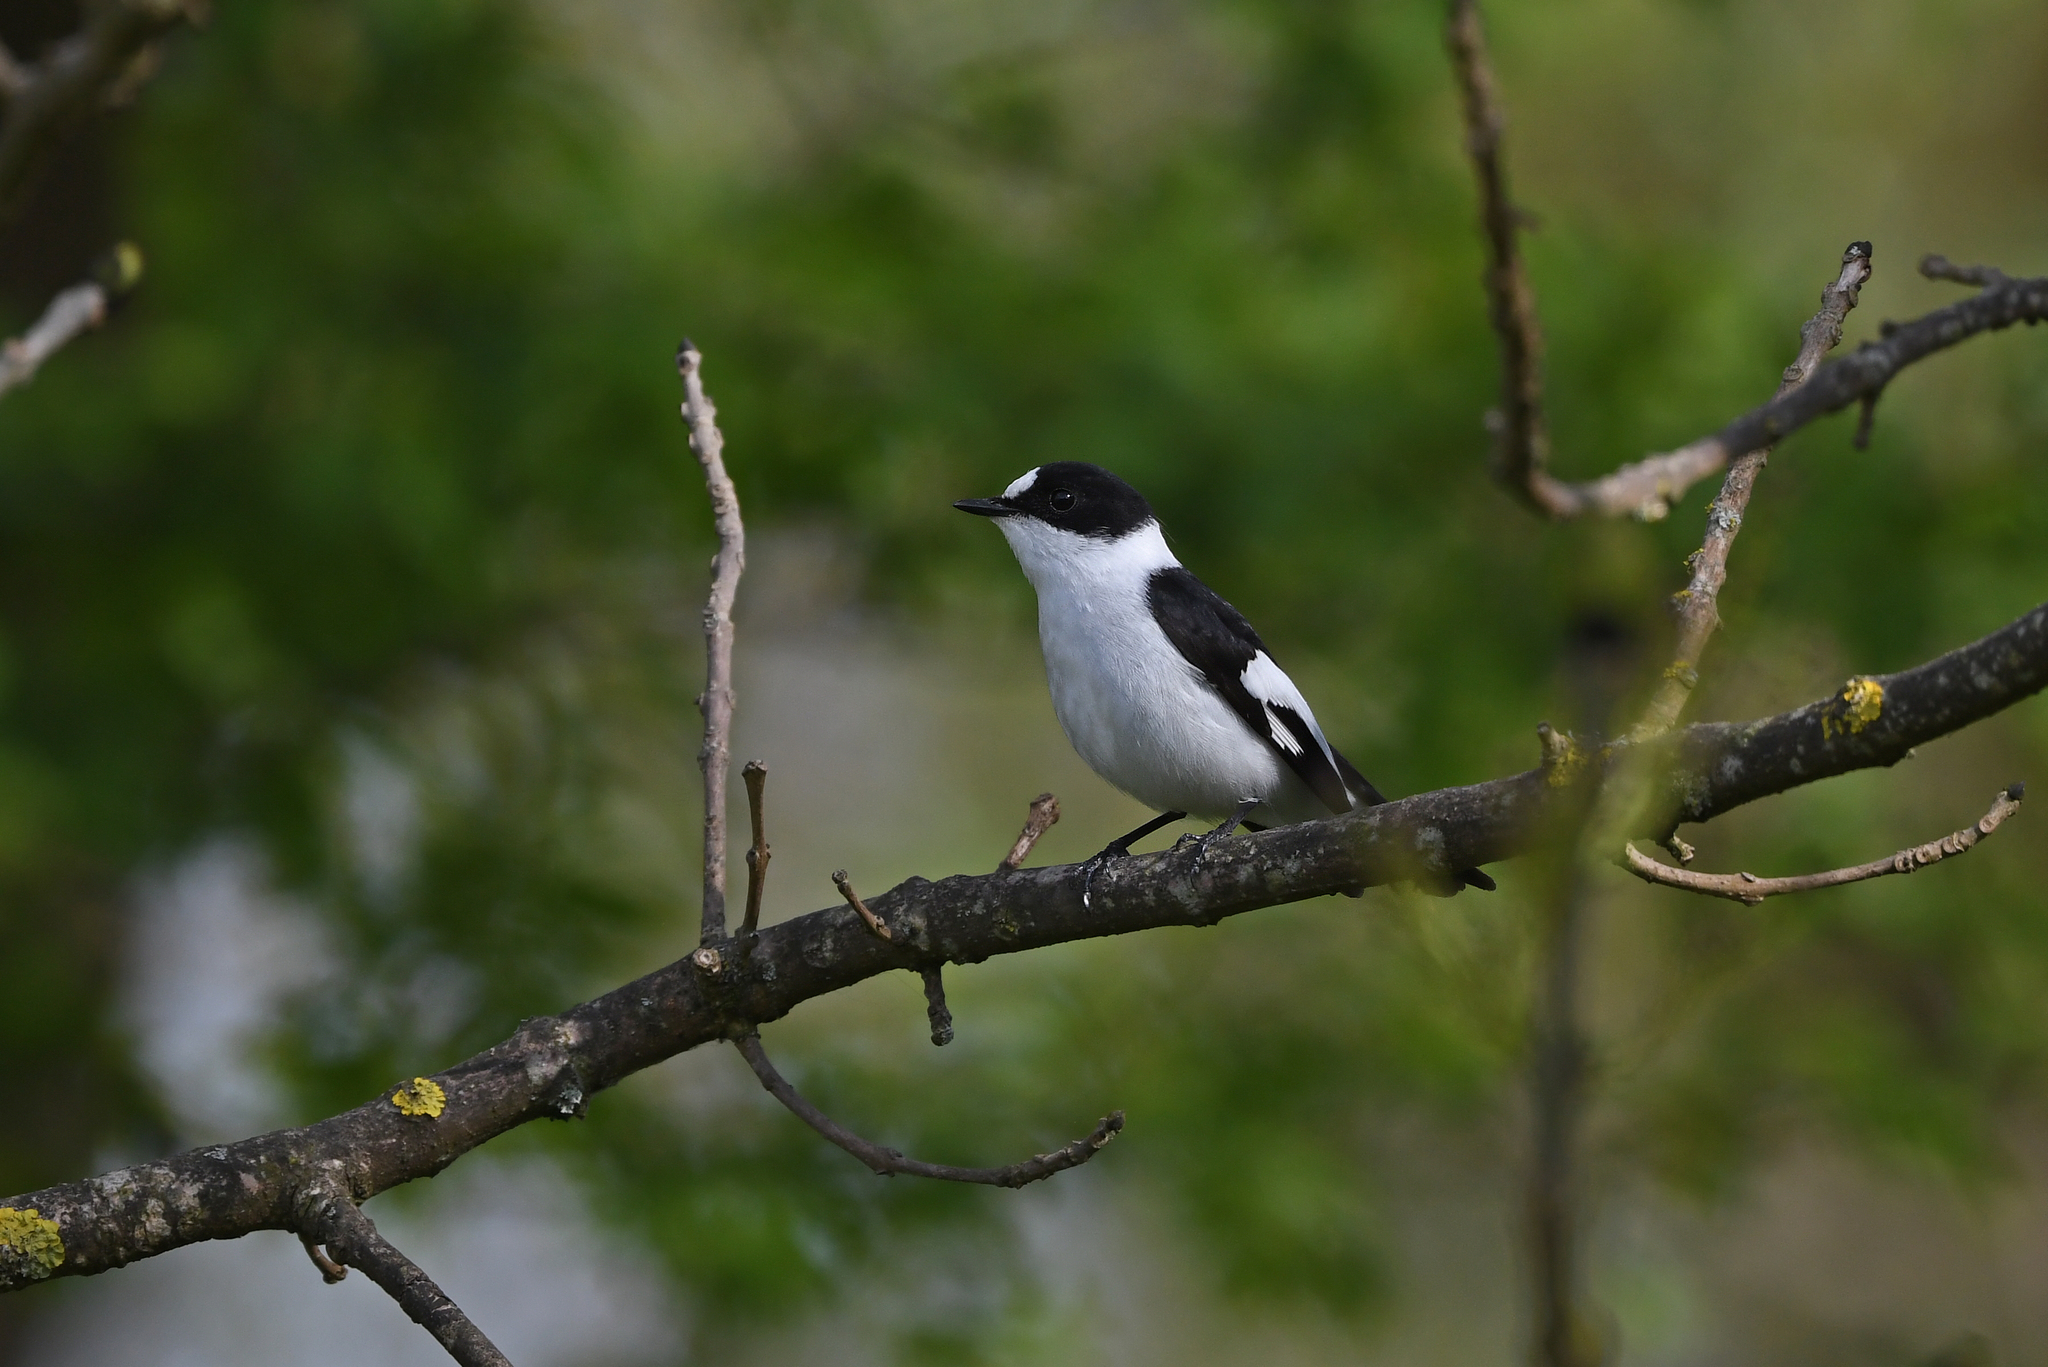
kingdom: Animalia
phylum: Chordata
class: Aves
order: Passeriformes
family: Muscicapidae
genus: Ficedula
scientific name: Ficedula albicollis
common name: Collared flycatcher
